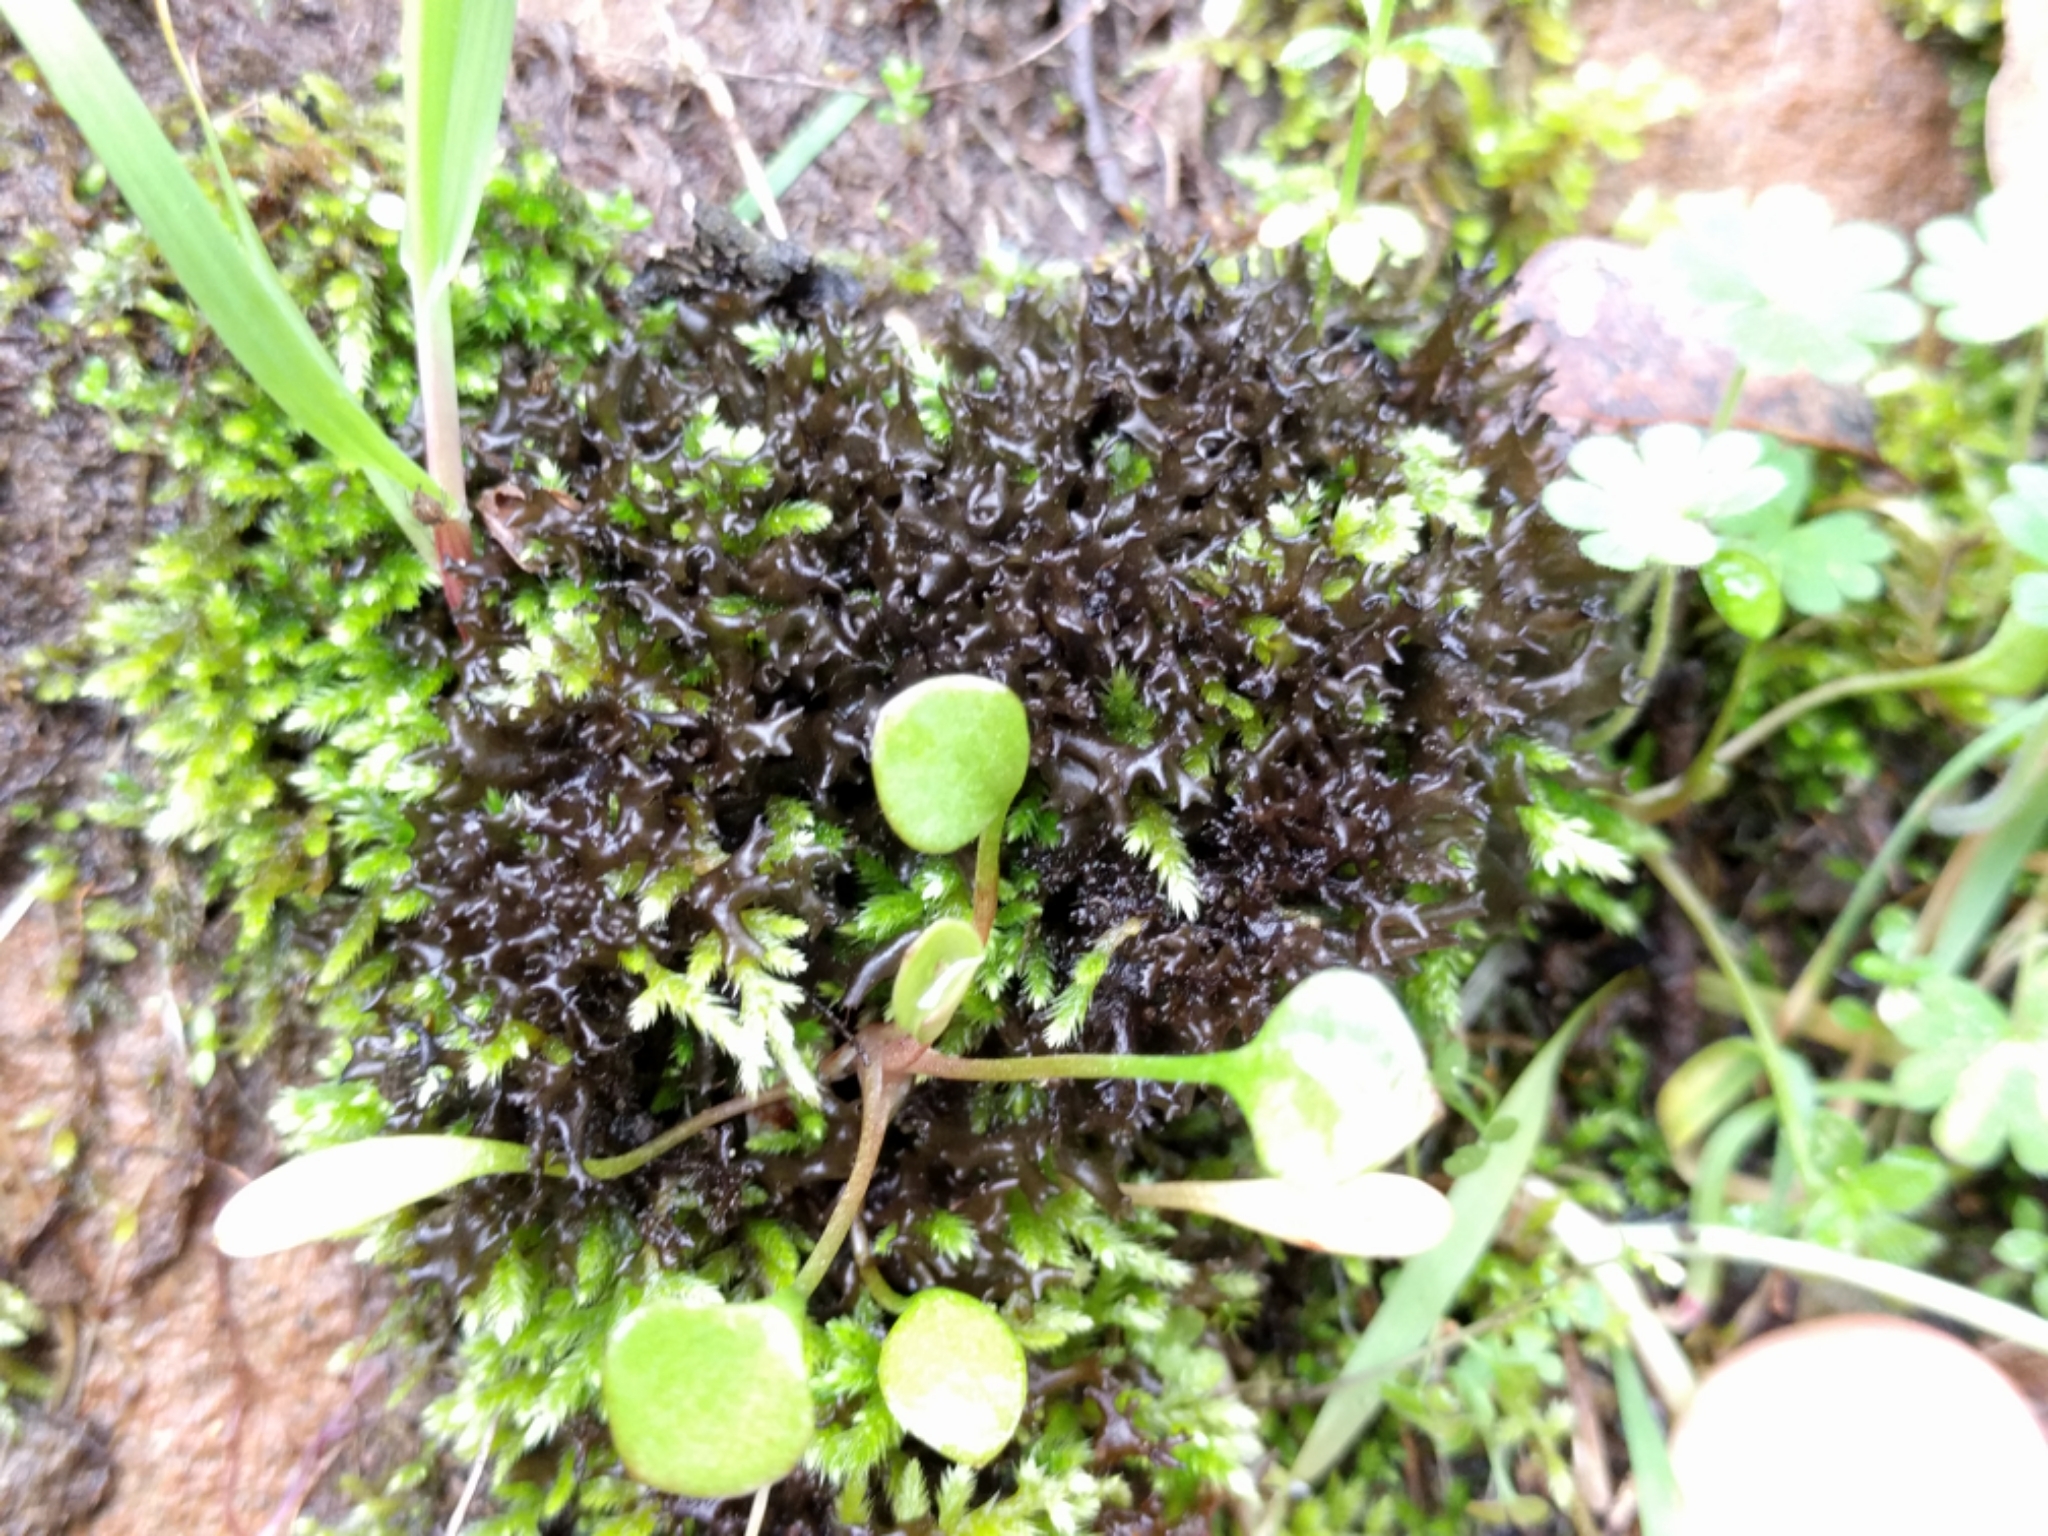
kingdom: Fungi
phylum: Ascomycota
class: Lecanoromycetes
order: Peltigerales
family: Collemataceae
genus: Scytinium
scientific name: Scytinium palmatum
